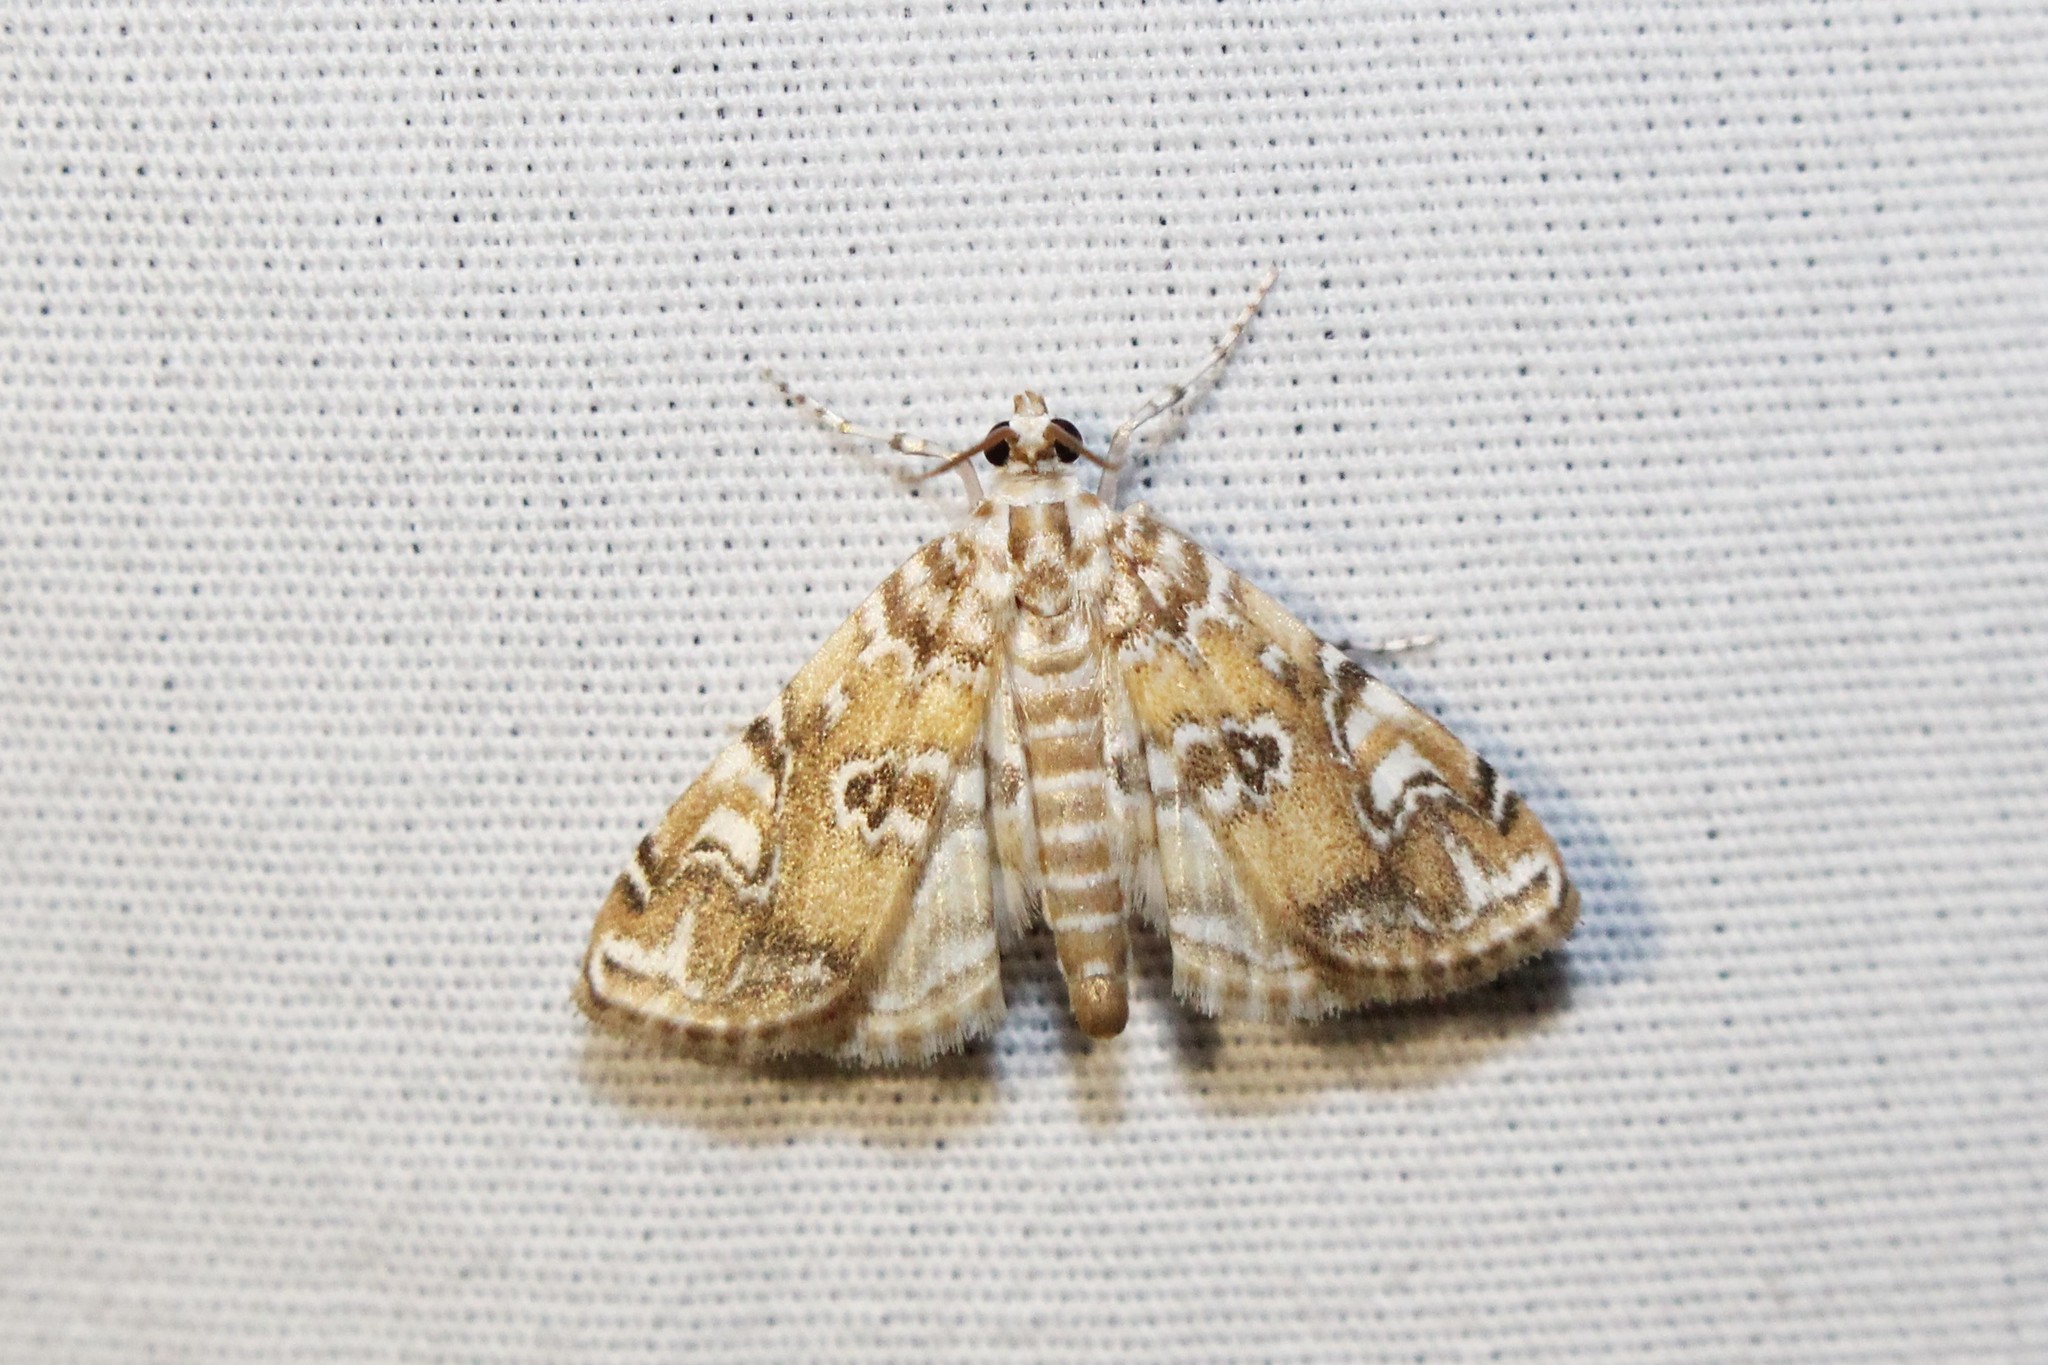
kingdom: Animalia
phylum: Arthropoda
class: Insecta
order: Lepidoptera
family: Crambidae
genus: Elophila
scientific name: Elophila gyralis
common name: Waterlily borer moth
